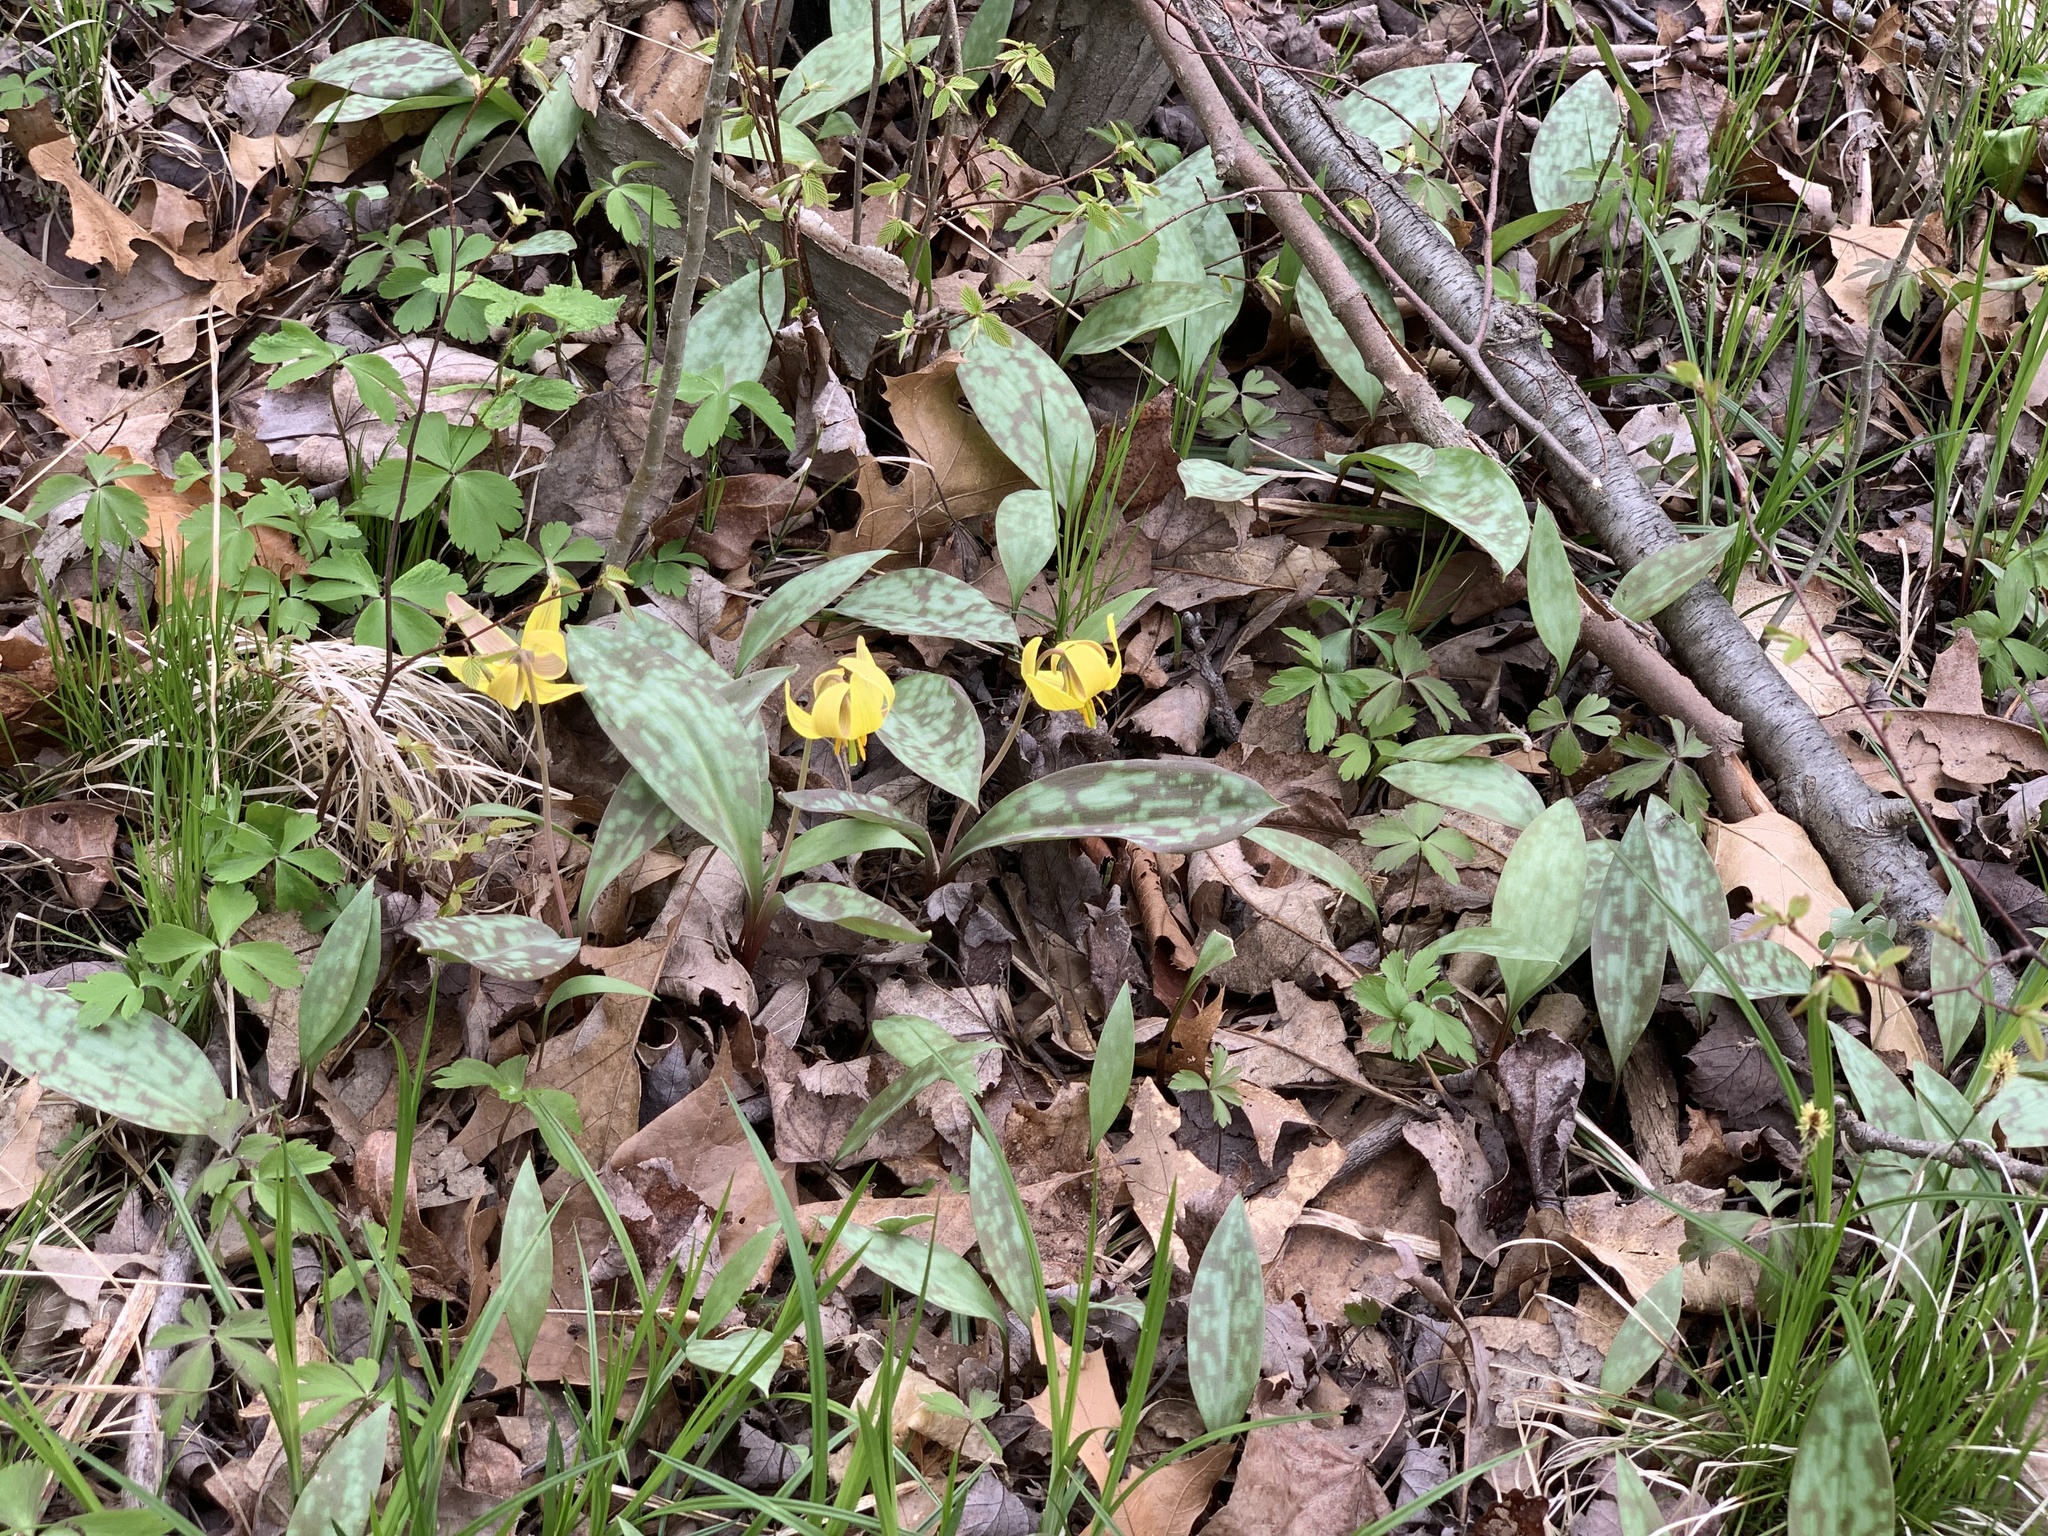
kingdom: Plantae
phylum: Tracheophyta
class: Liliopsida
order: Liliales
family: Liliaceae
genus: Erythronium
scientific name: Erythronium americanum
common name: Yellow adder's-tongue
